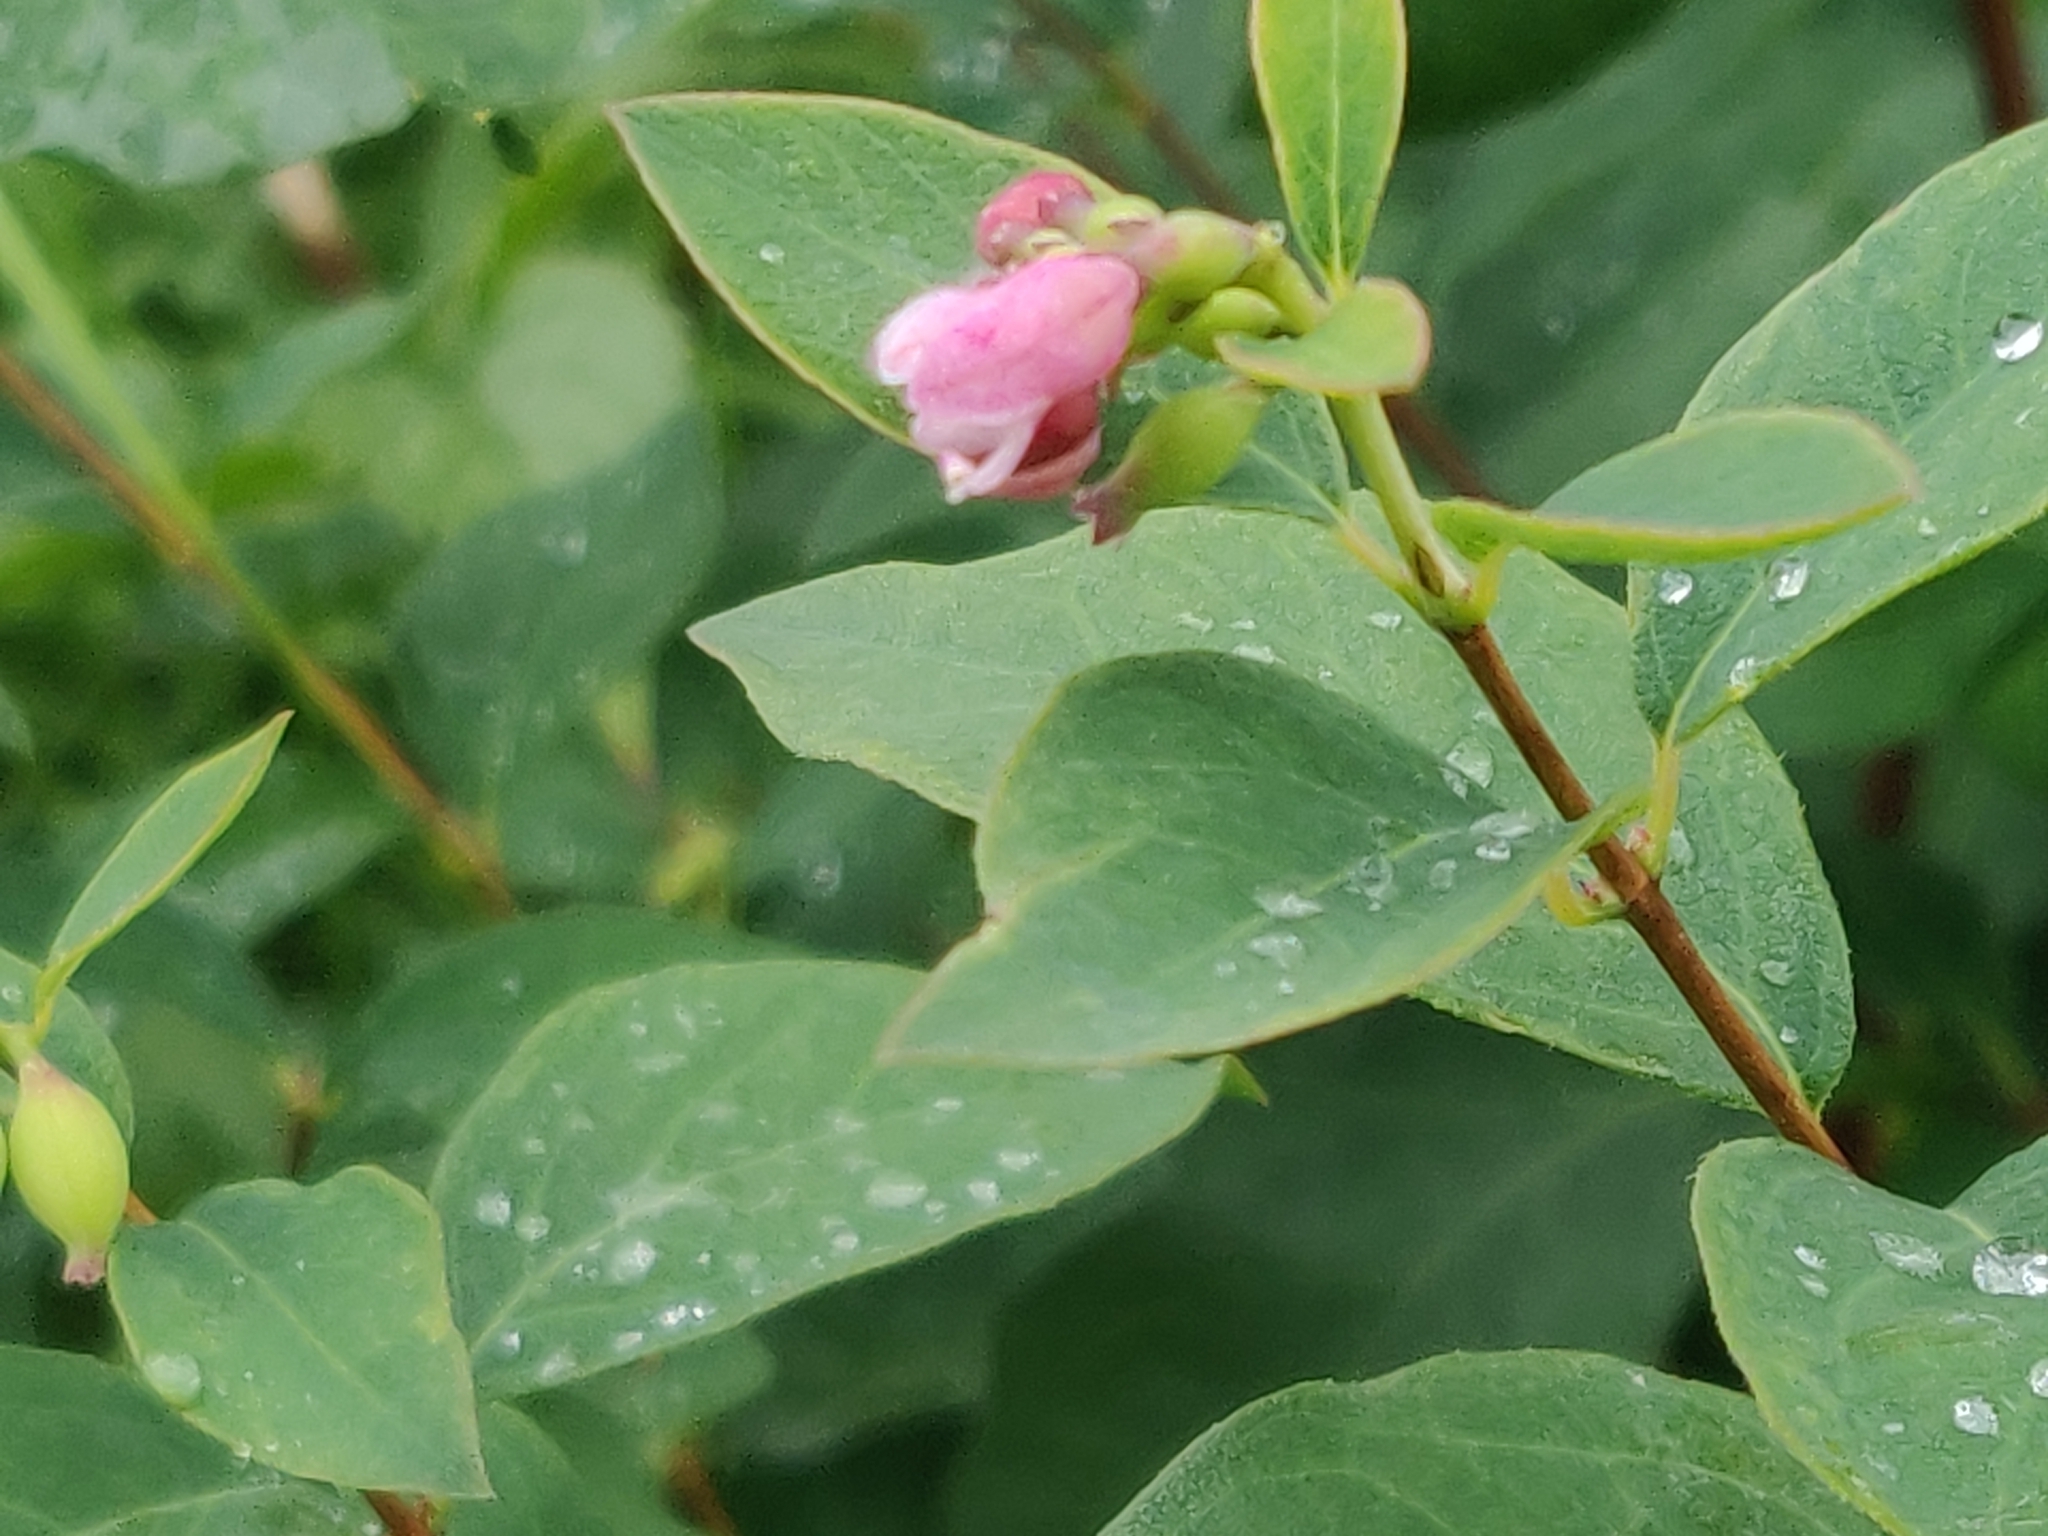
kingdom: Plantae
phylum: Tracheophyta
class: Magnoliopsida
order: Dipsacales
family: Caprifoliaceae
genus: Symphoricarpos
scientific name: Symphoricarpos albus
